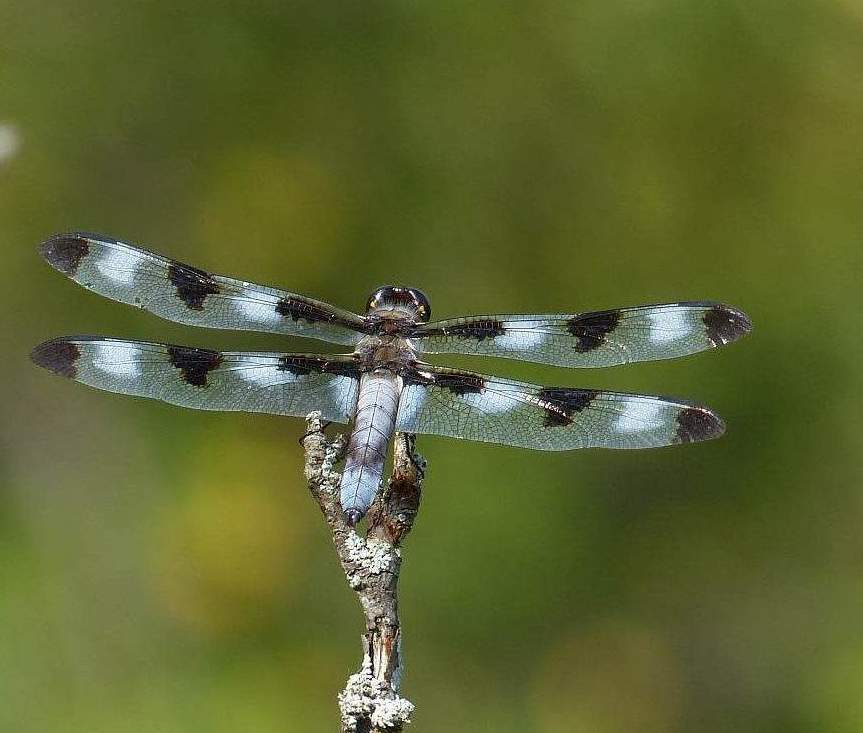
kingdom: Animalia
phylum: Arthropoda
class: Insecta
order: Odonata
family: Libellulidae
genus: Libellula
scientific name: Libellula pulchella
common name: Twelve-spotted skimmer
